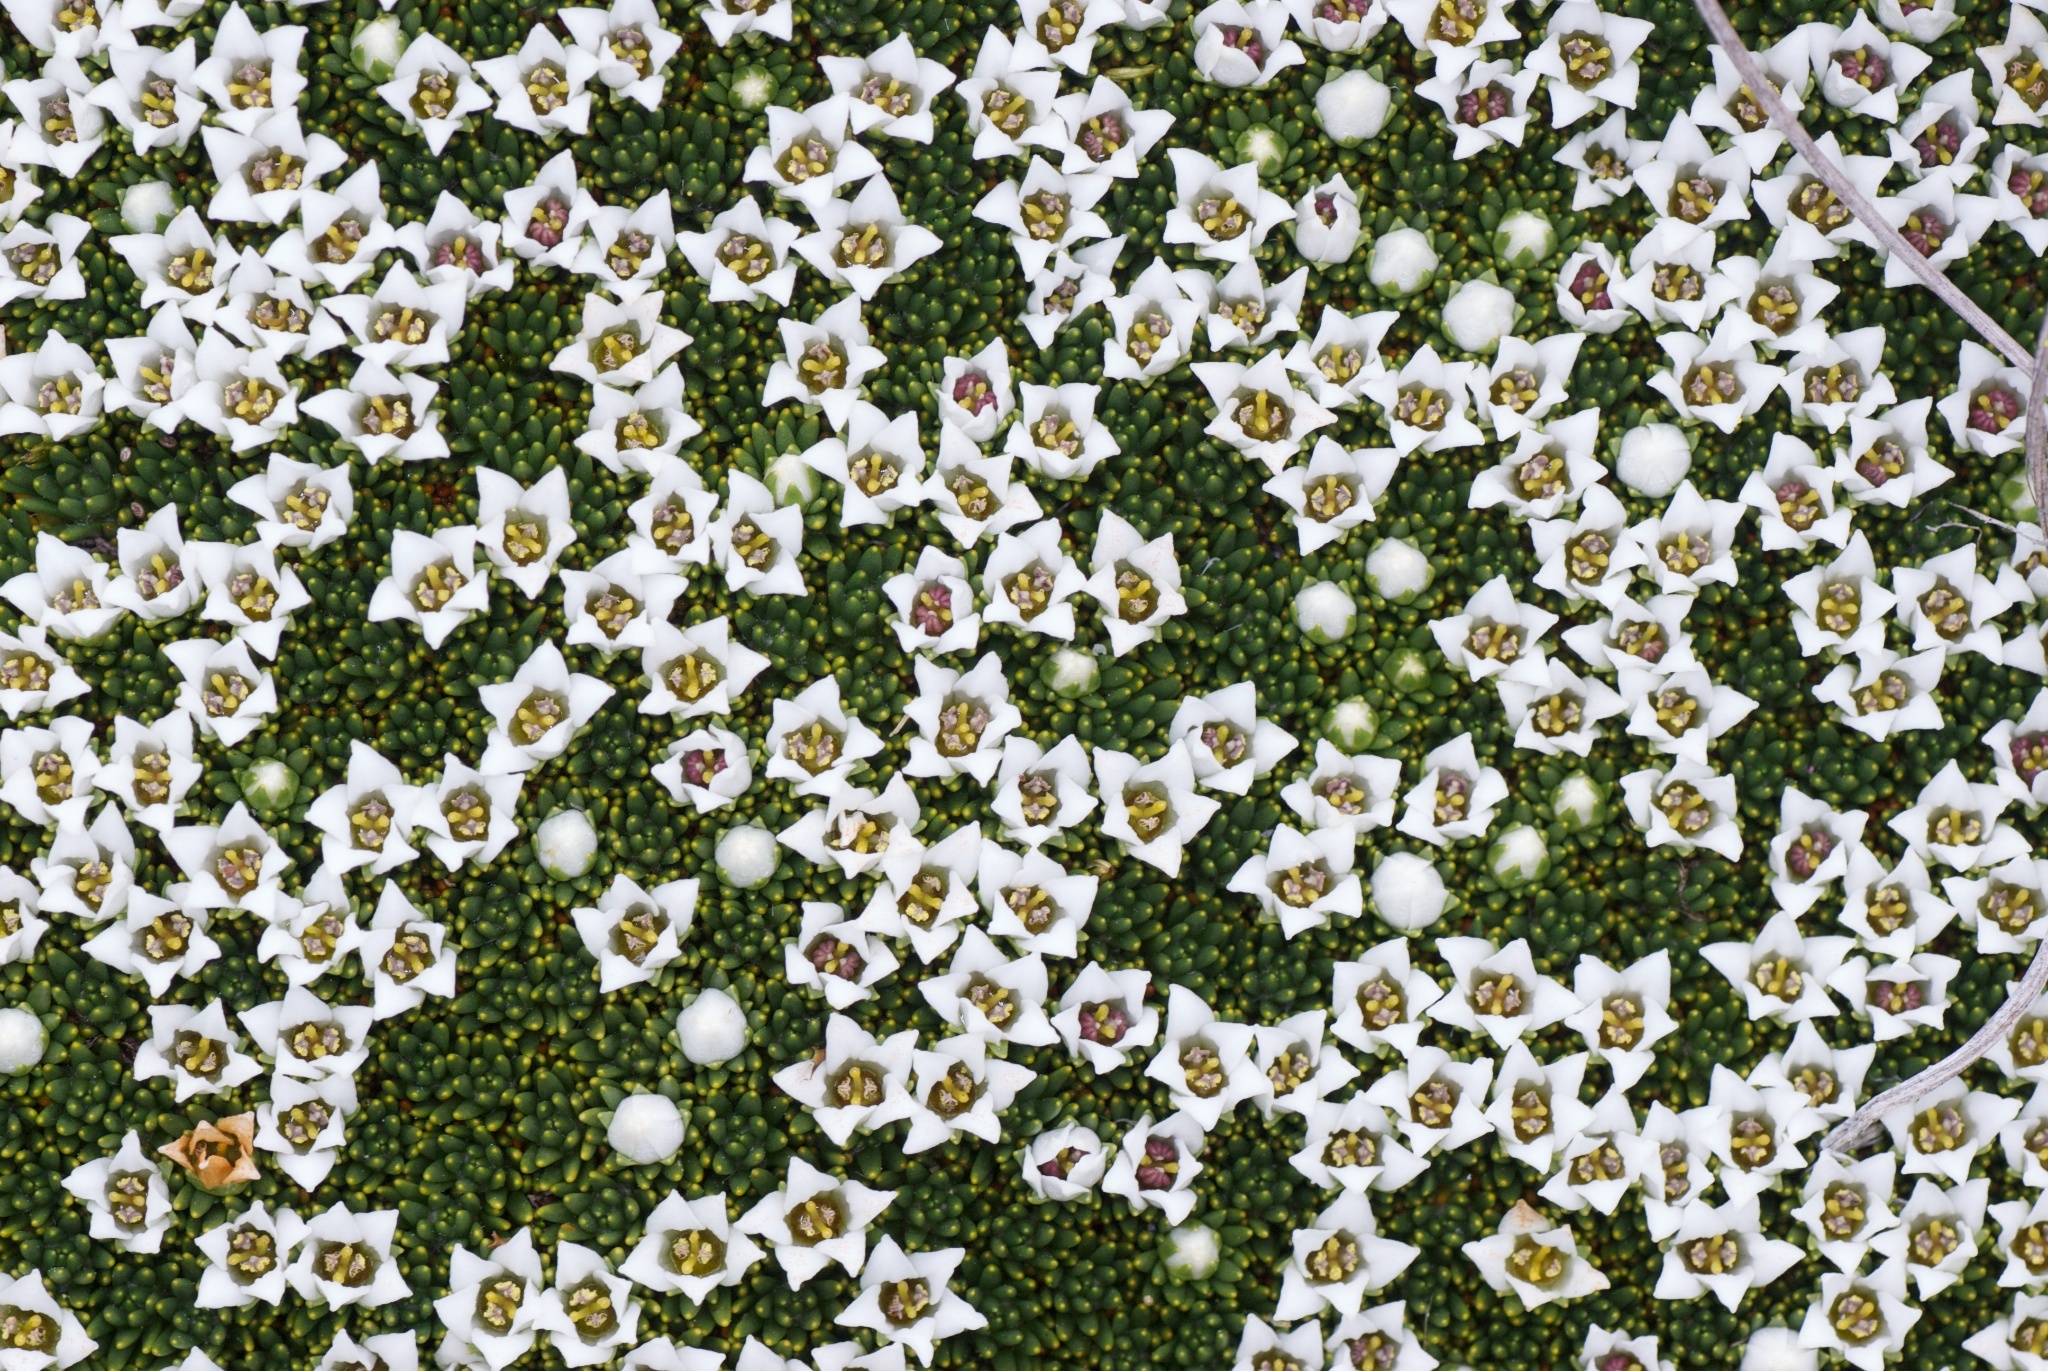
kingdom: Plantae
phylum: Tracheophyta
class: Magnoliopsida
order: Asterales
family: Stylidiaceae
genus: Donatia
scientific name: Donatia novae-zelandiae
